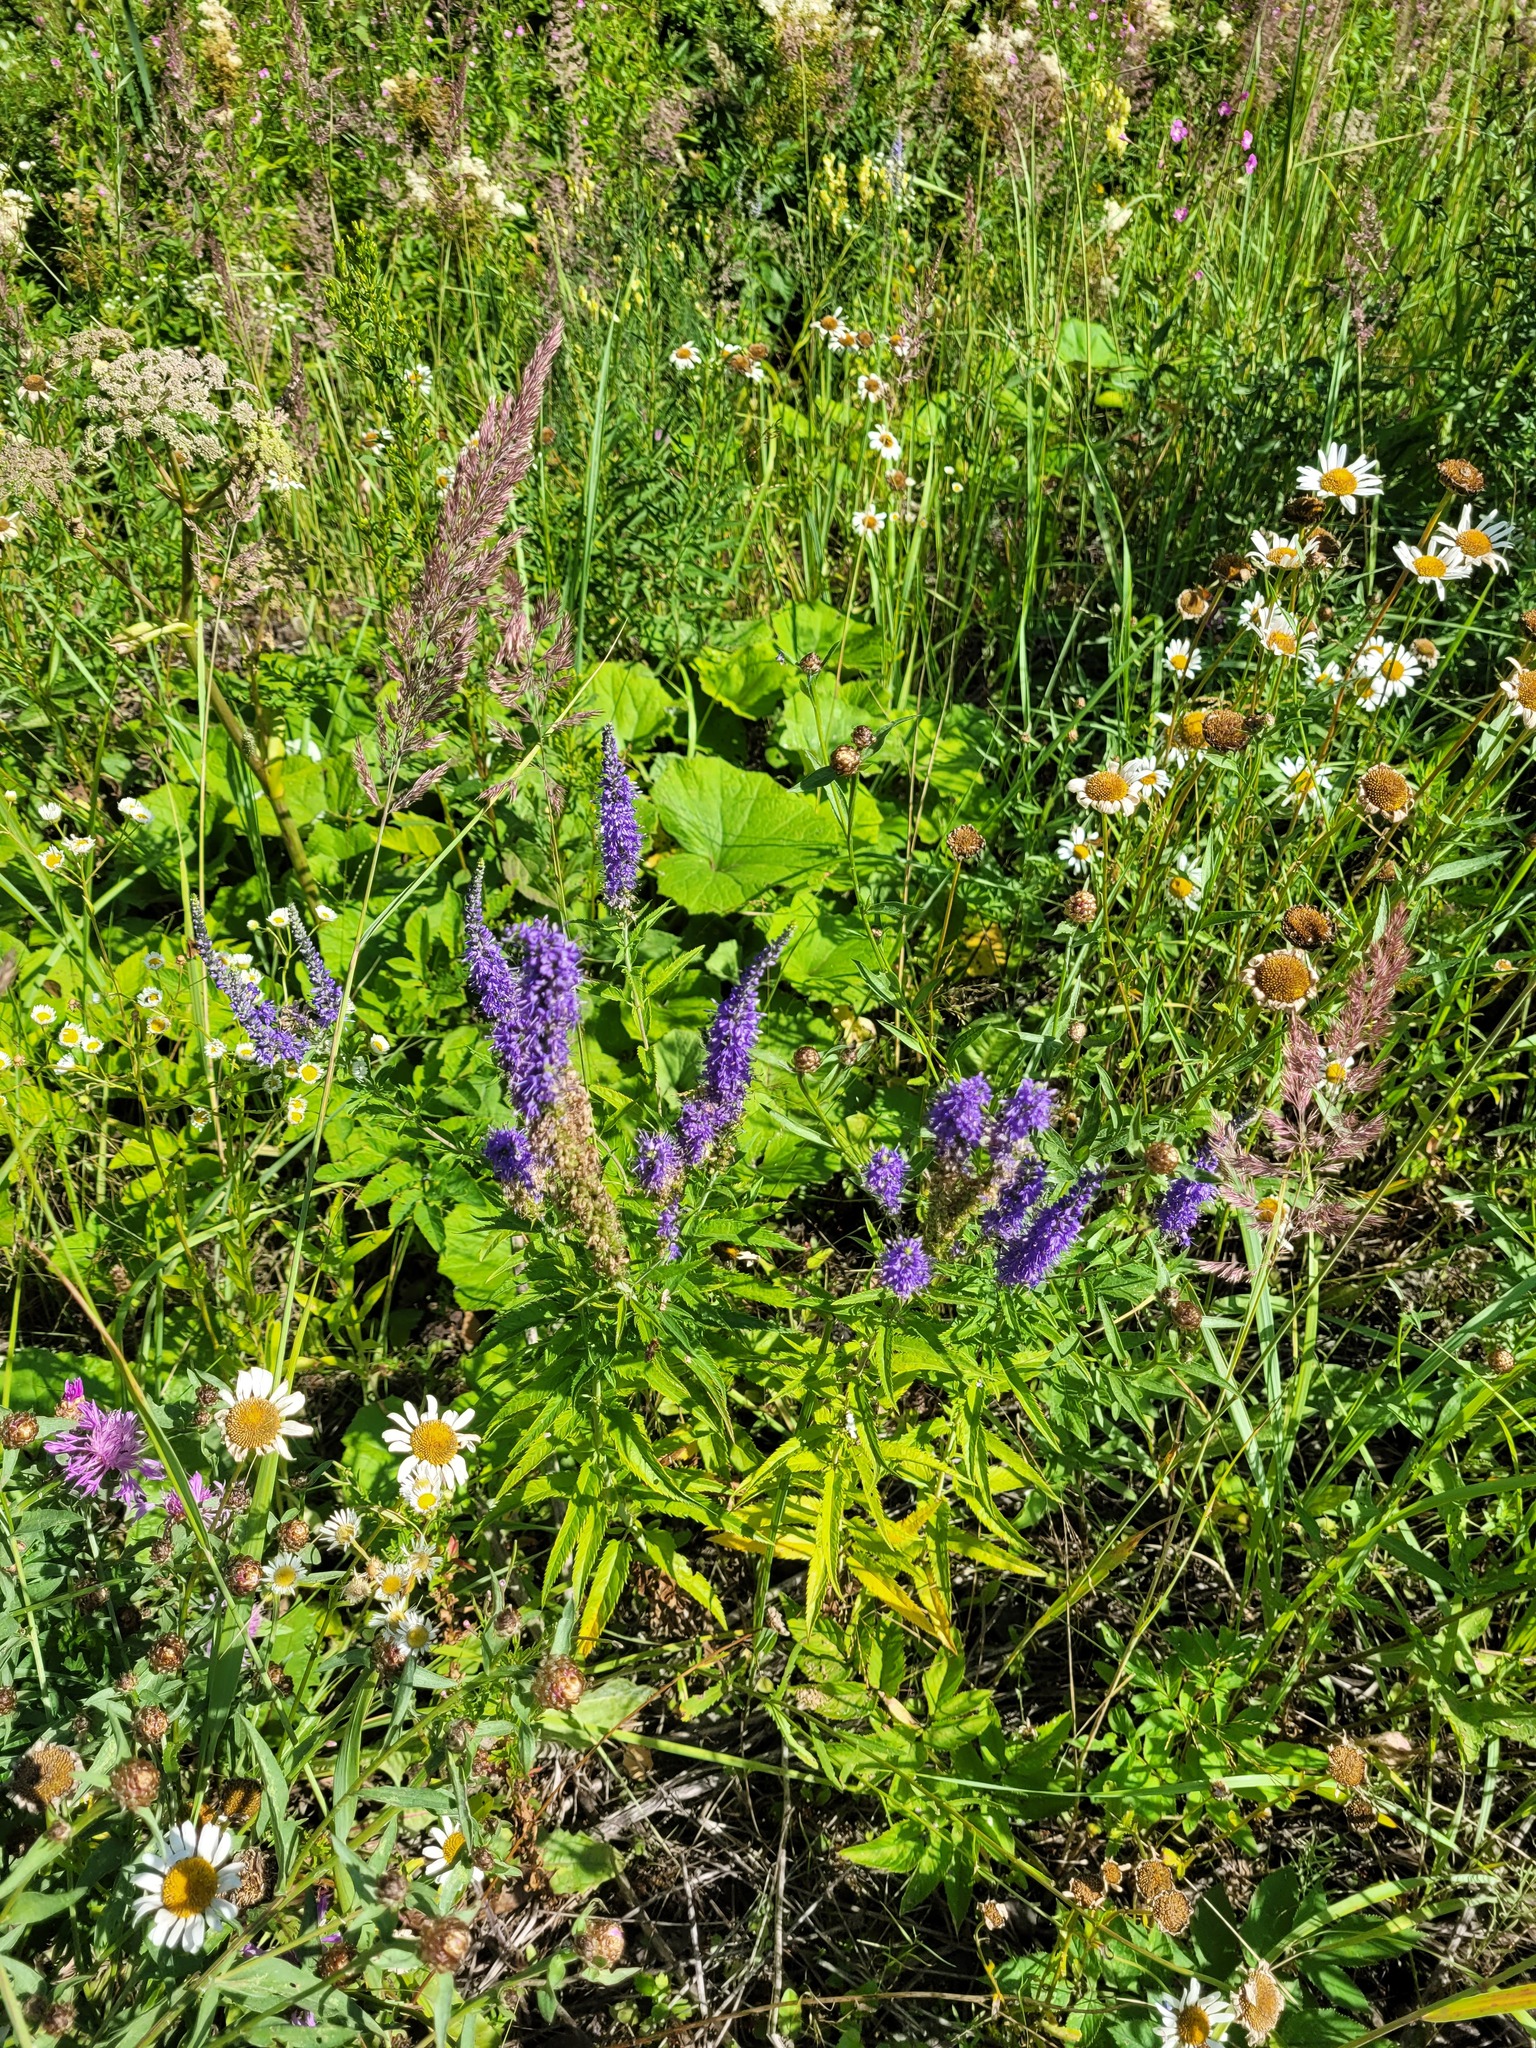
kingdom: Plantae
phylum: Tracheophyta
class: Magnoliopsida
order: Lamiales
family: Plantaginaceae
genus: Veronica
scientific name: Veronica longifolia
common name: Garden speedwell
